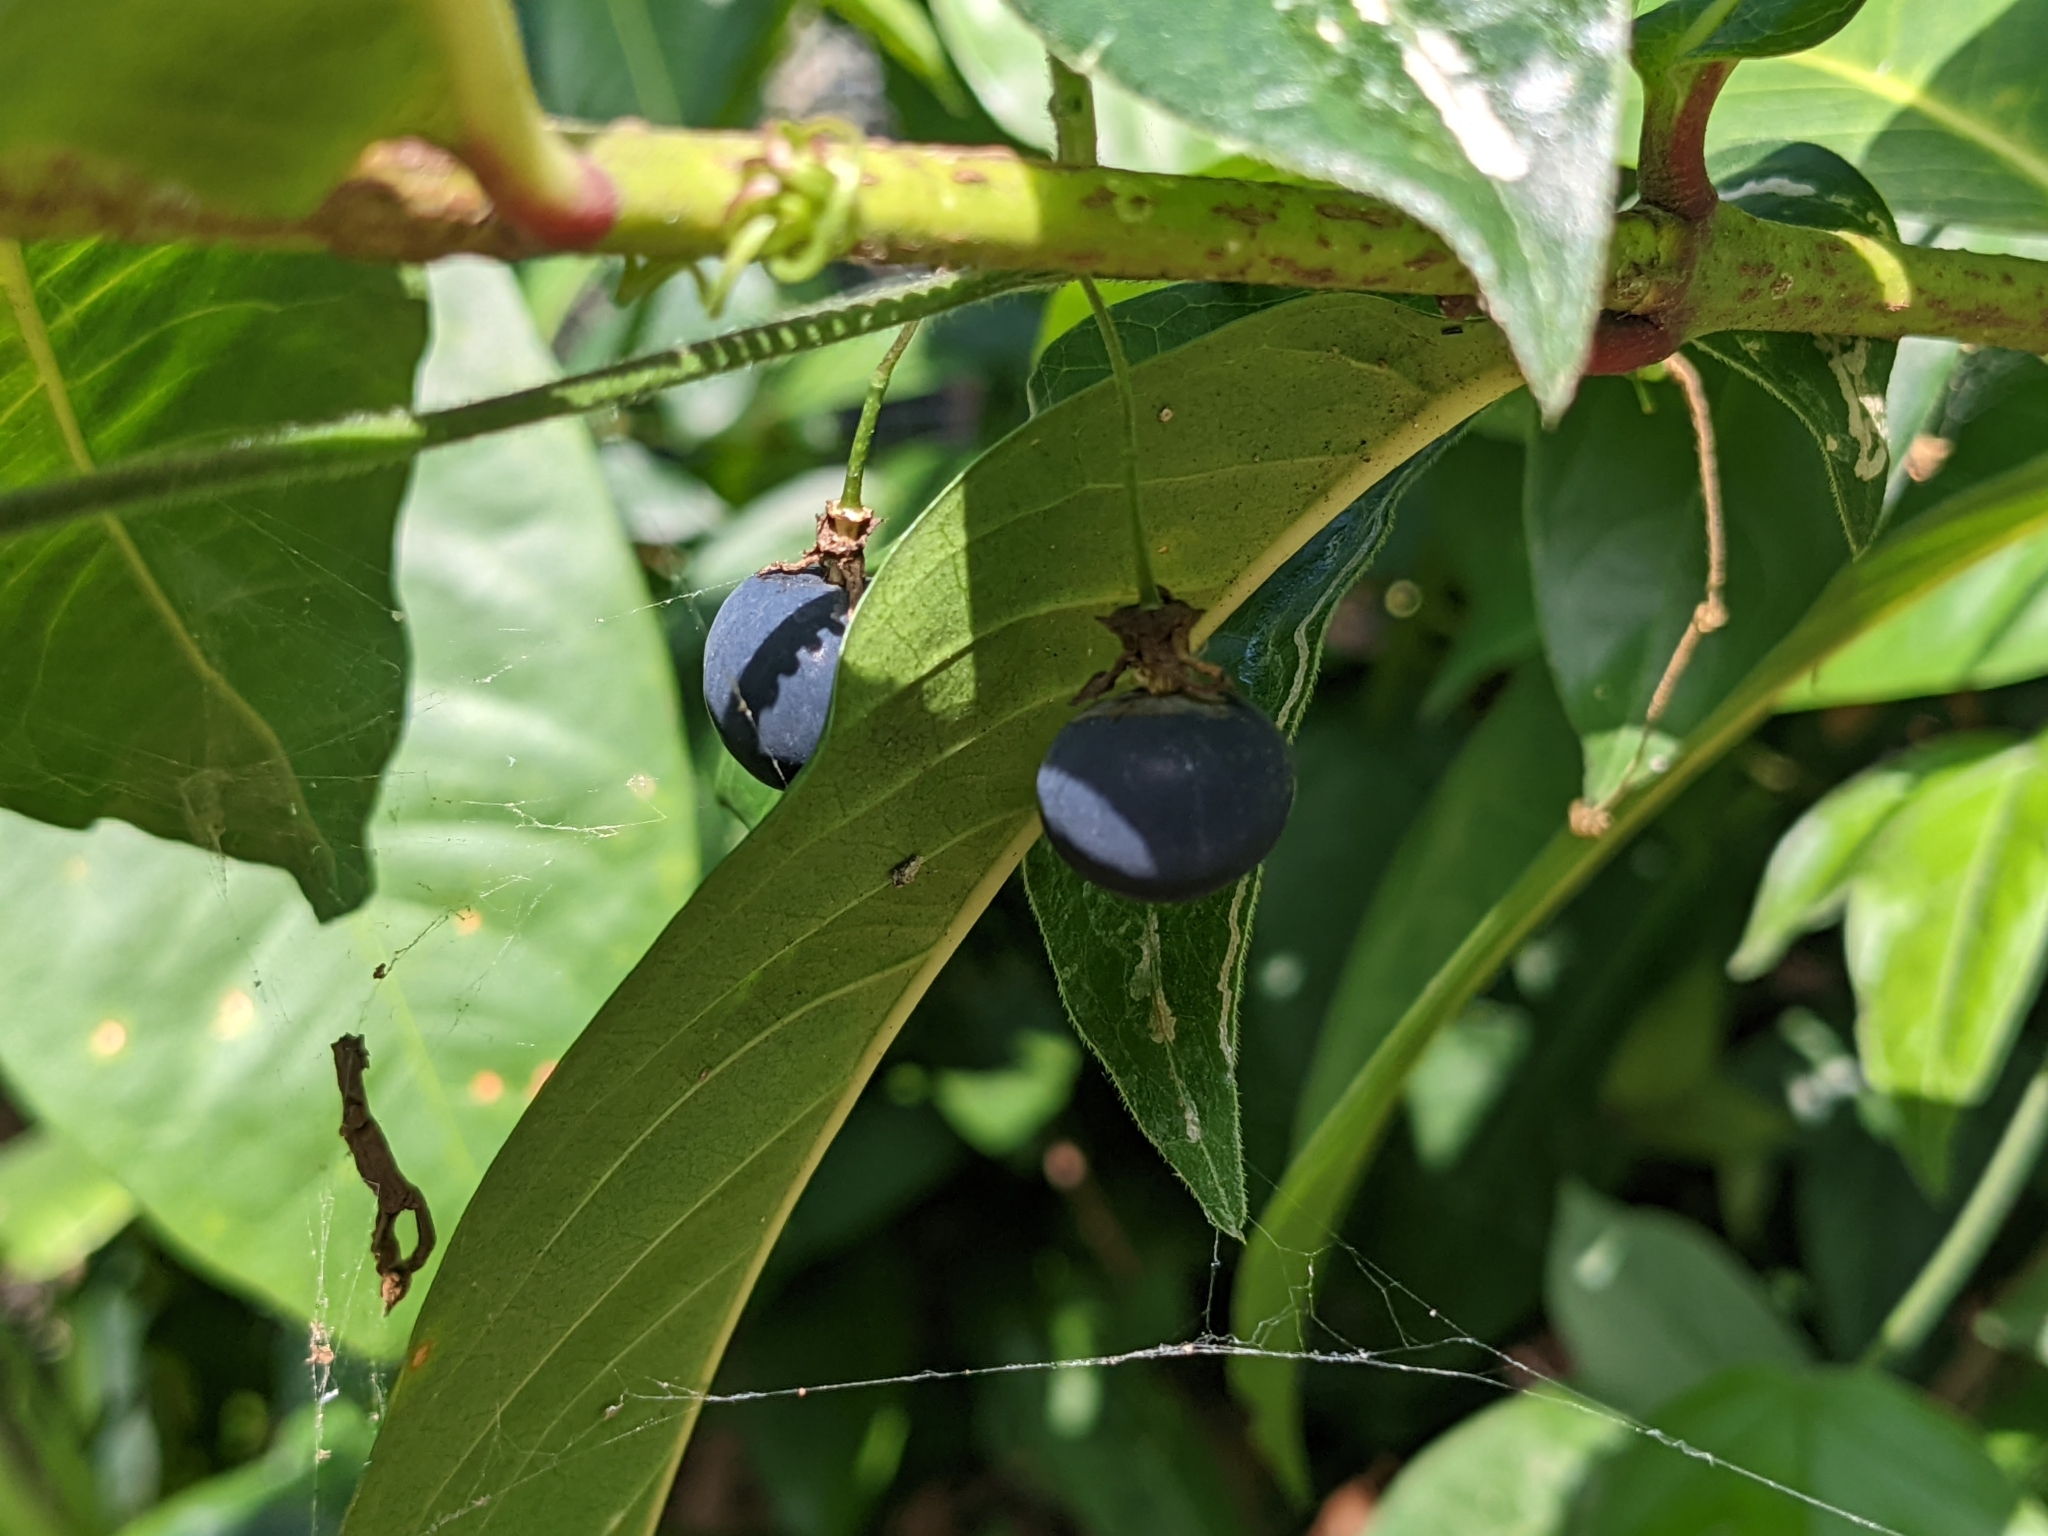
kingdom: Plantae
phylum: Tracheophyta
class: Magnoliopsida
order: Malpighiales
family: Passifloraceae
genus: Passiflora
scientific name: Passiflora suberosa
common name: Wild passionfruit
